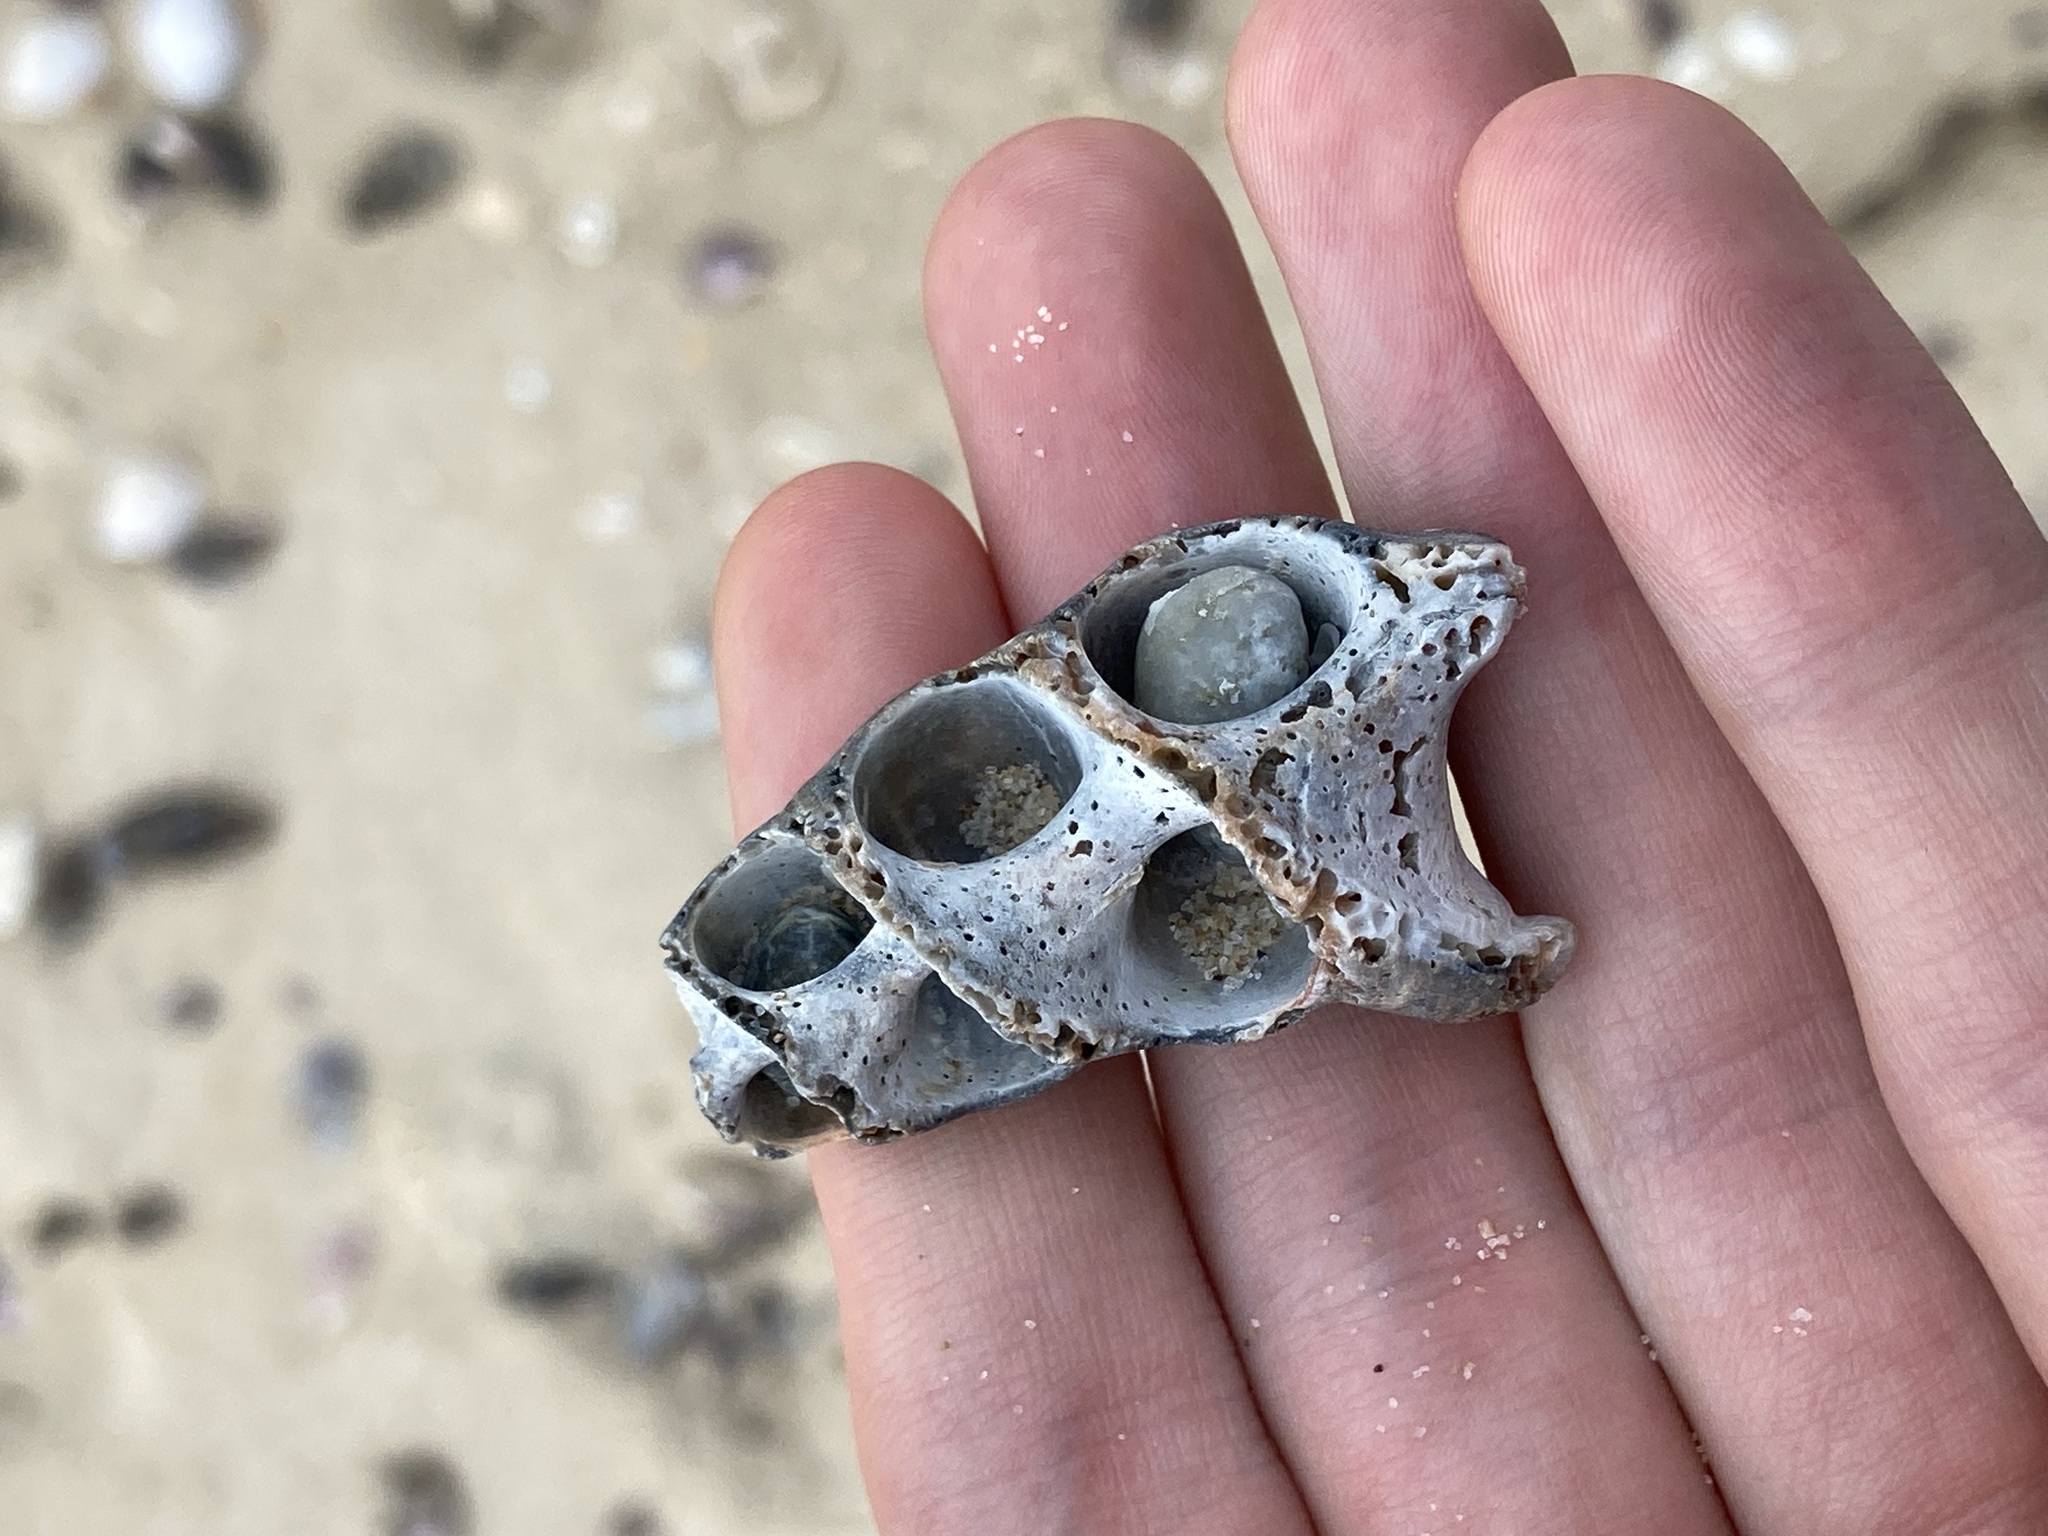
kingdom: Animalia
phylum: Mollusca
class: Gastropoda
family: Batillariidae
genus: Pyrazus
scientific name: Pyrazus ebeninus
